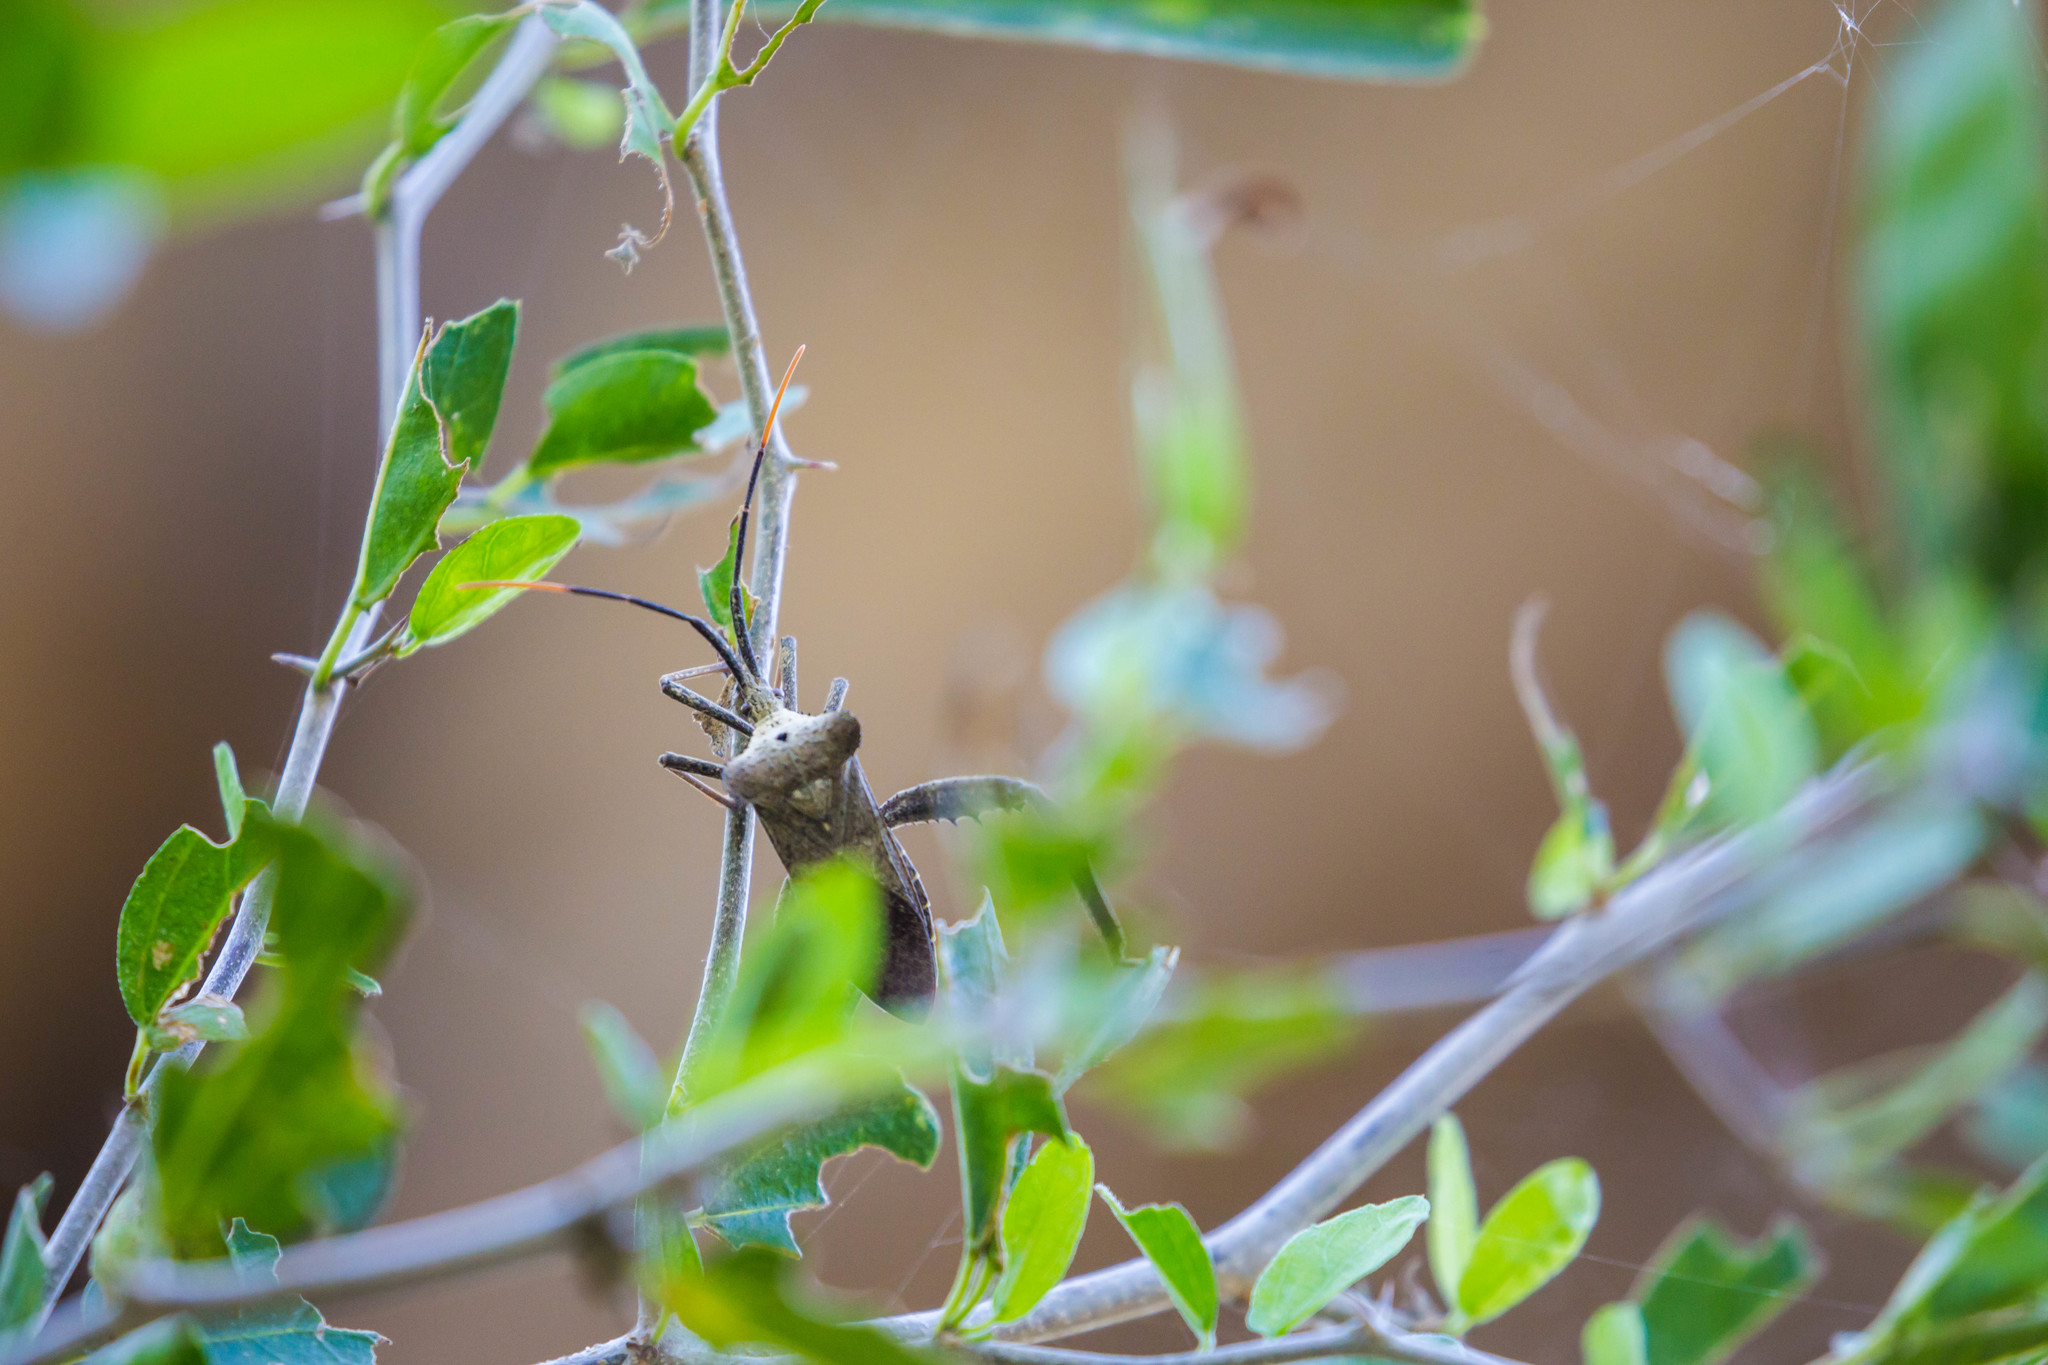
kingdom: Animalia
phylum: Arthropoda
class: Insecta
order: Hemiptera
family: Coreidae
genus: Acanthocephala
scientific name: Acanthocephala alata
